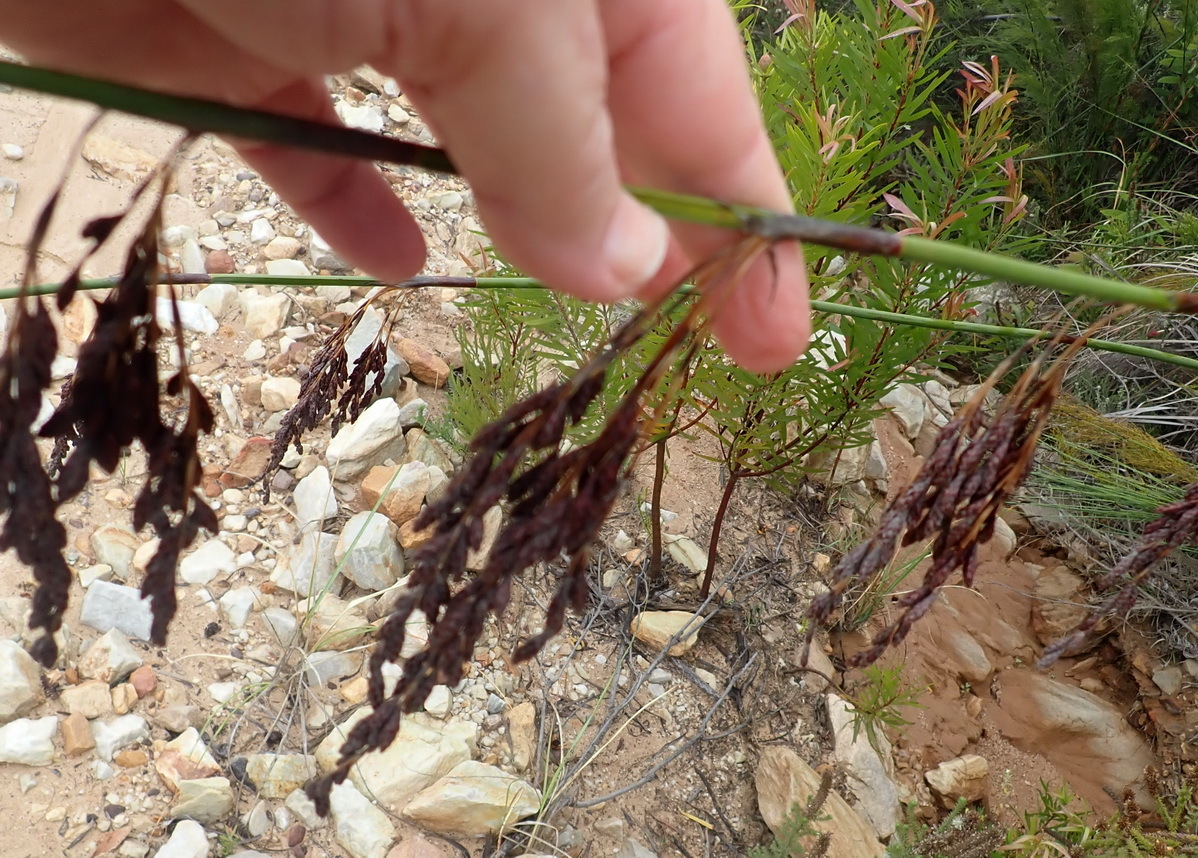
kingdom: Plantae
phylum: Tracheophyta
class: Liliopsida
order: Poales
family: Restionaceae
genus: Rhodocoma
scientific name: Rhodocoma gigantea
